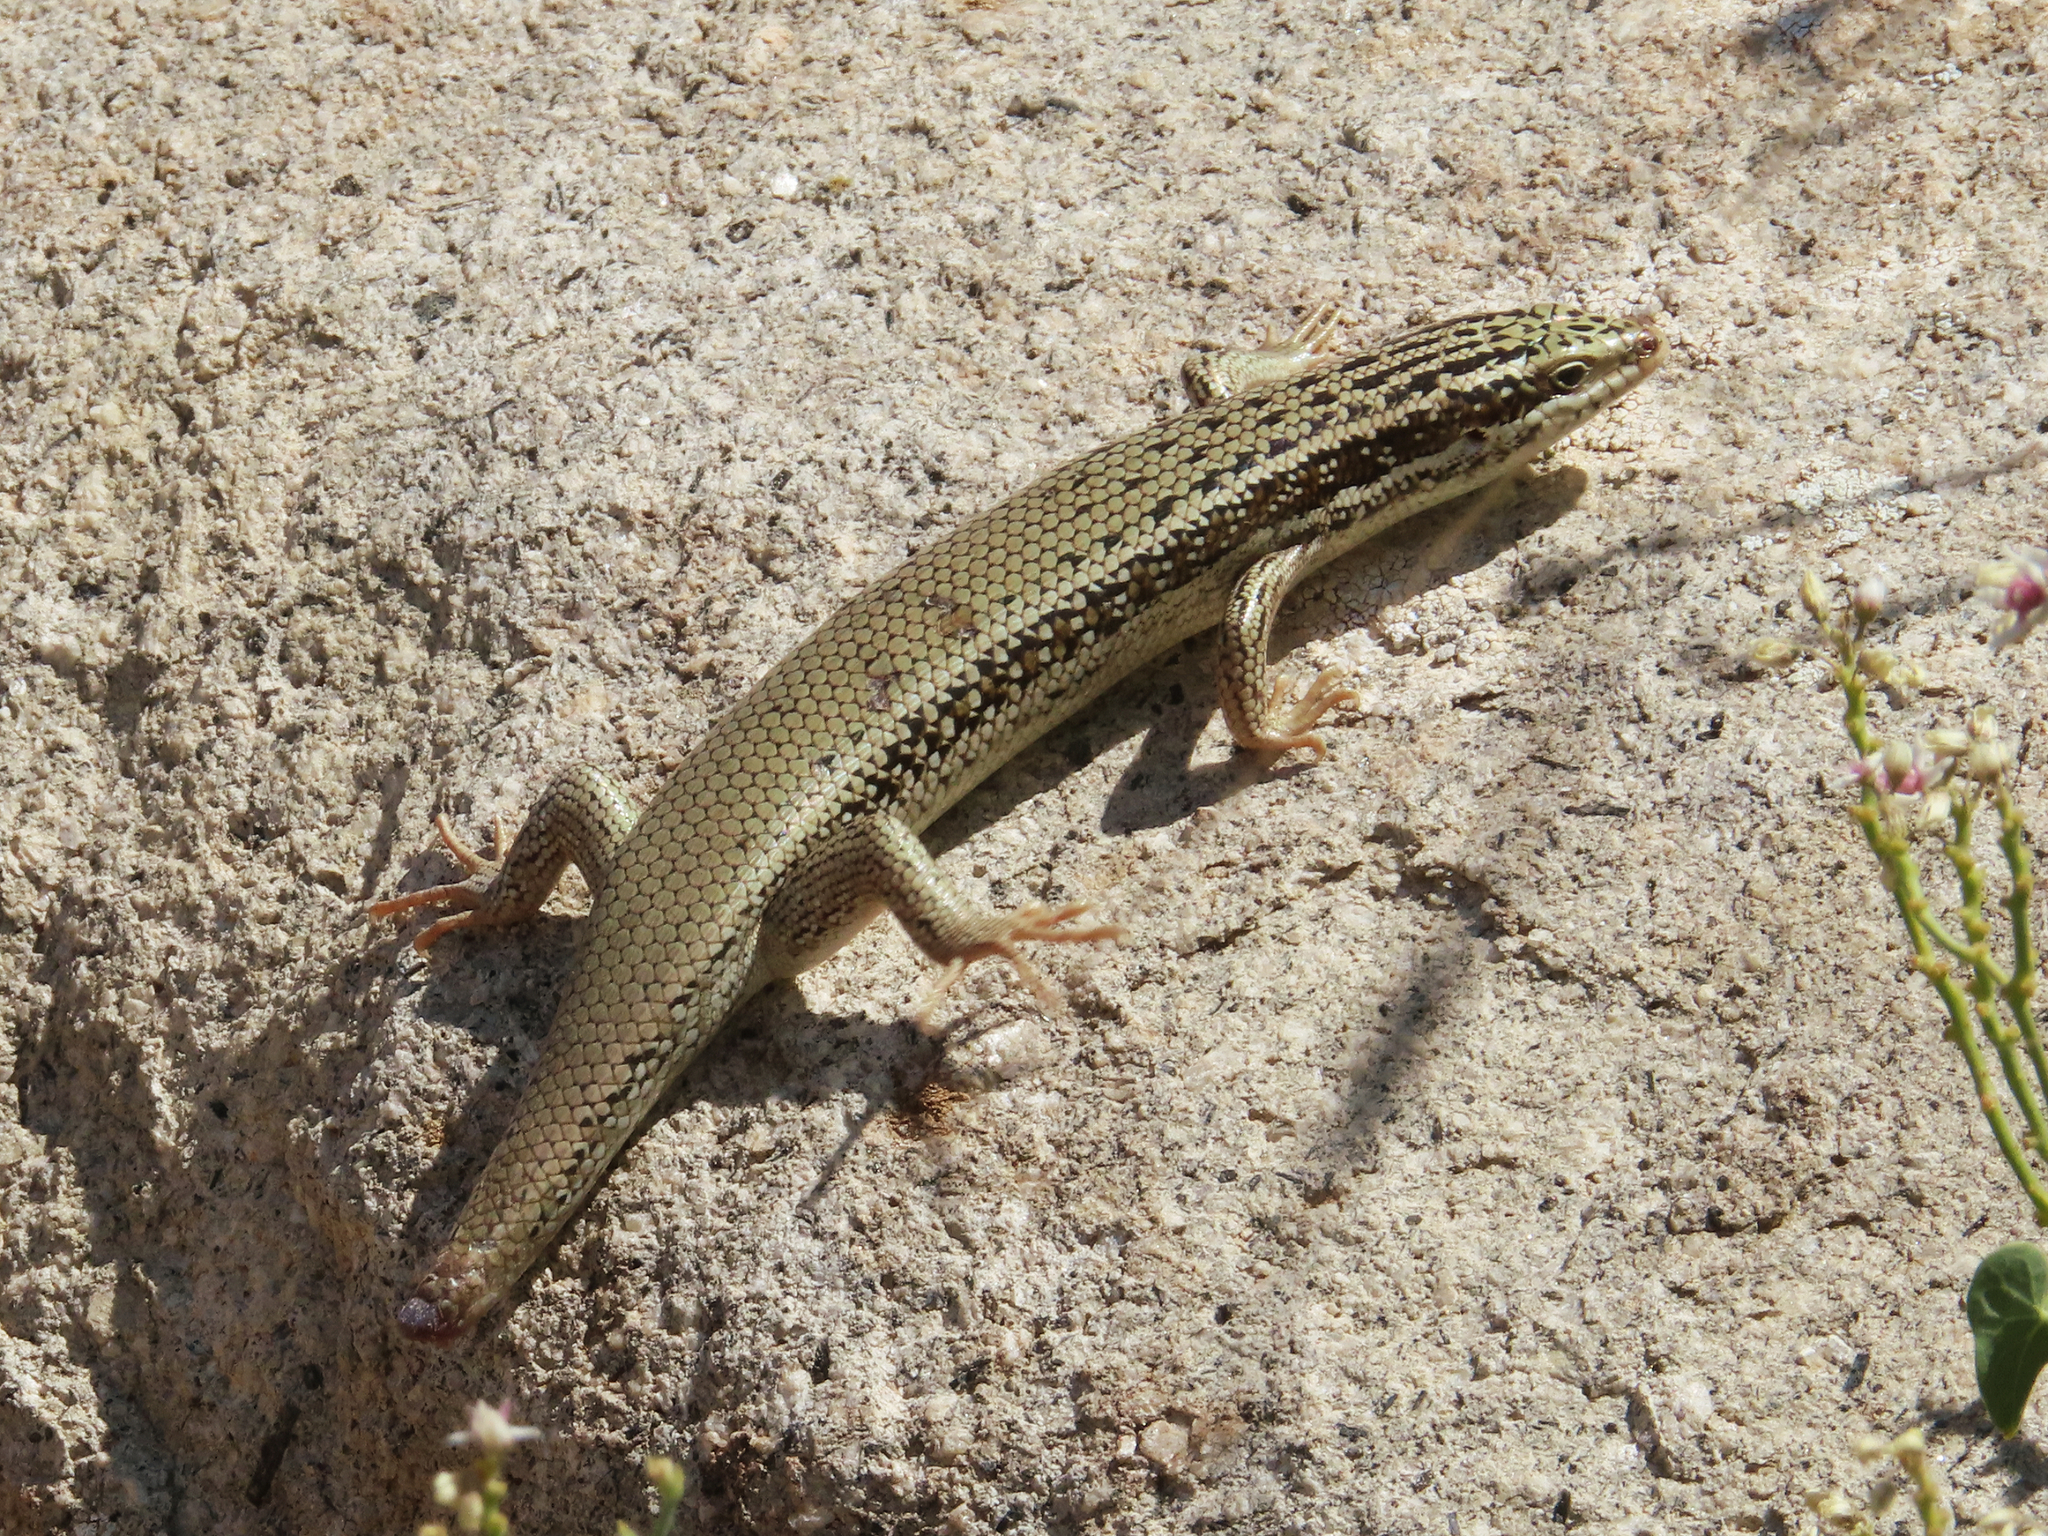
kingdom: Animalia
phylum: Chordata
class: Squamata
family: Scincidae
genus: Heremites
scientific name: Heremites septemtaeniatus
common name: Golden grass mabuya
